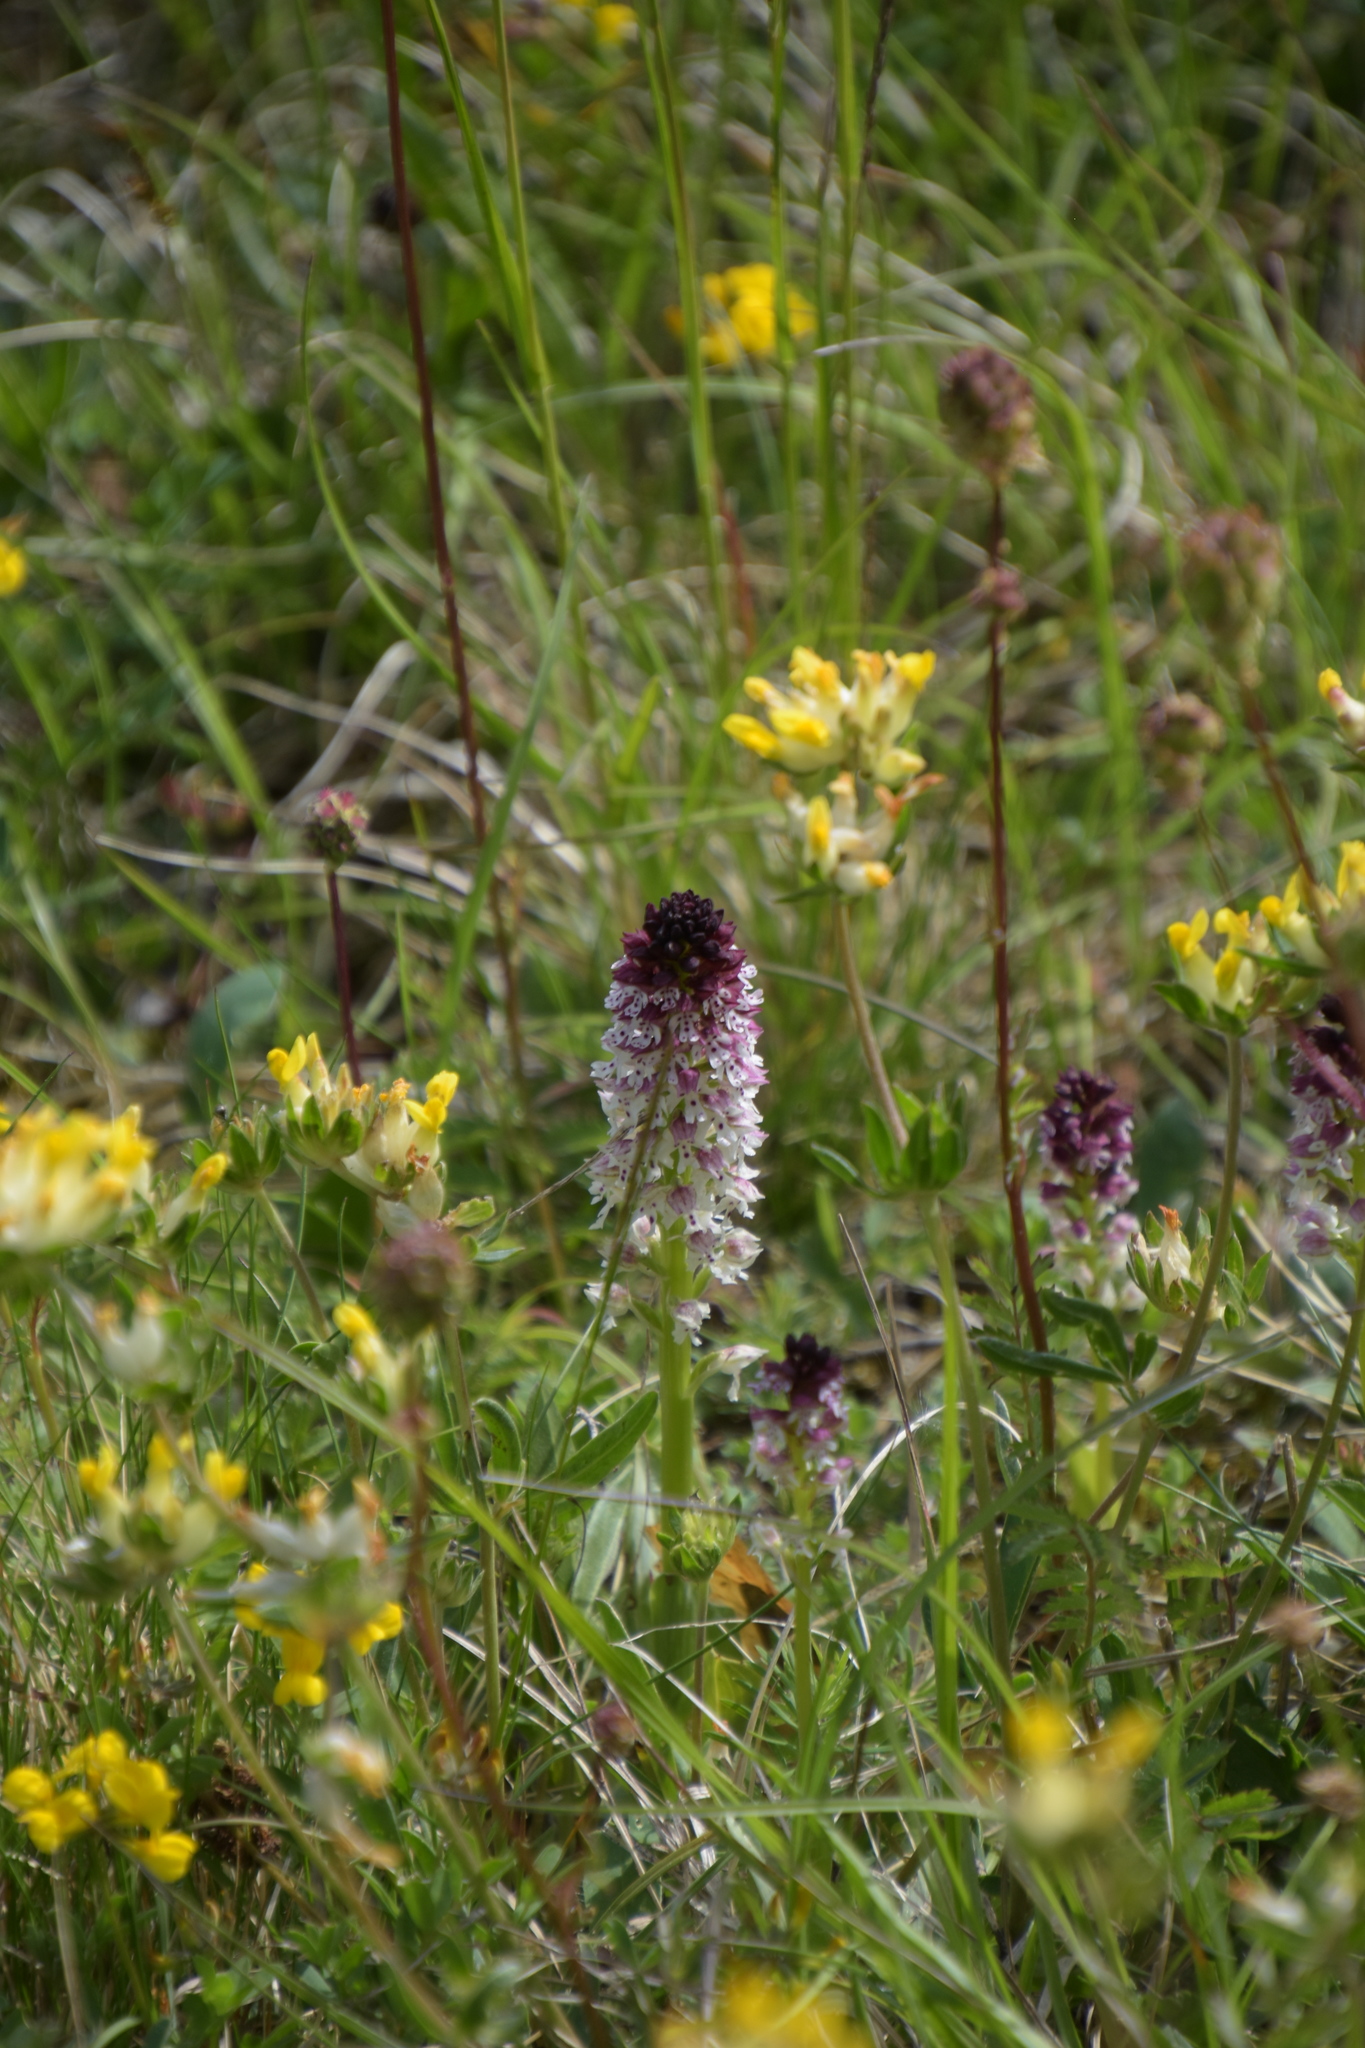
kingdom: Plantae
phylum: Tracheophyta
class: Liliopsida
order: Asparagales
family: Orchidaceae
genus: Neotinea
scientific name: Neotinea ustulata
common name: Burnt orchid
